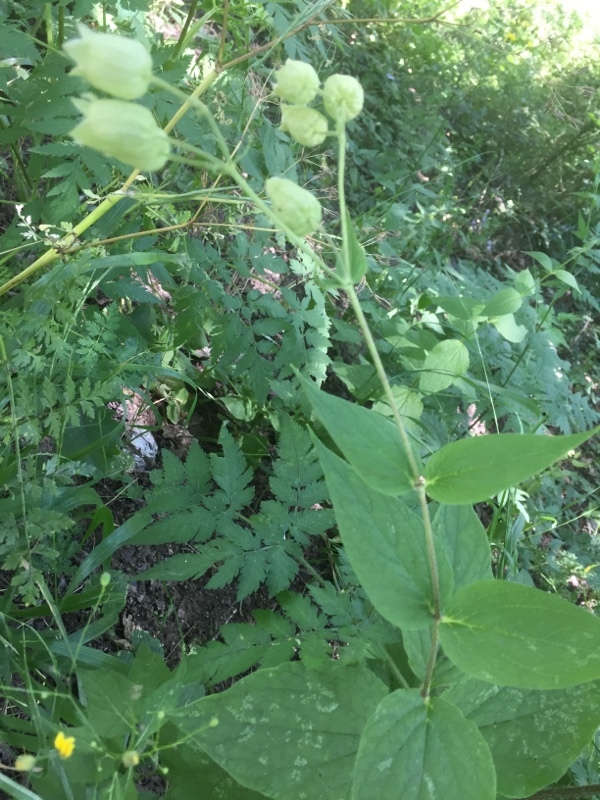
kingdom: Plantae
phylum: Tracheophyta
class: Magnoliopsida
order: Caryophyllales
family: Caryophyllaceae
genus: Silene
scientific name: Silene
